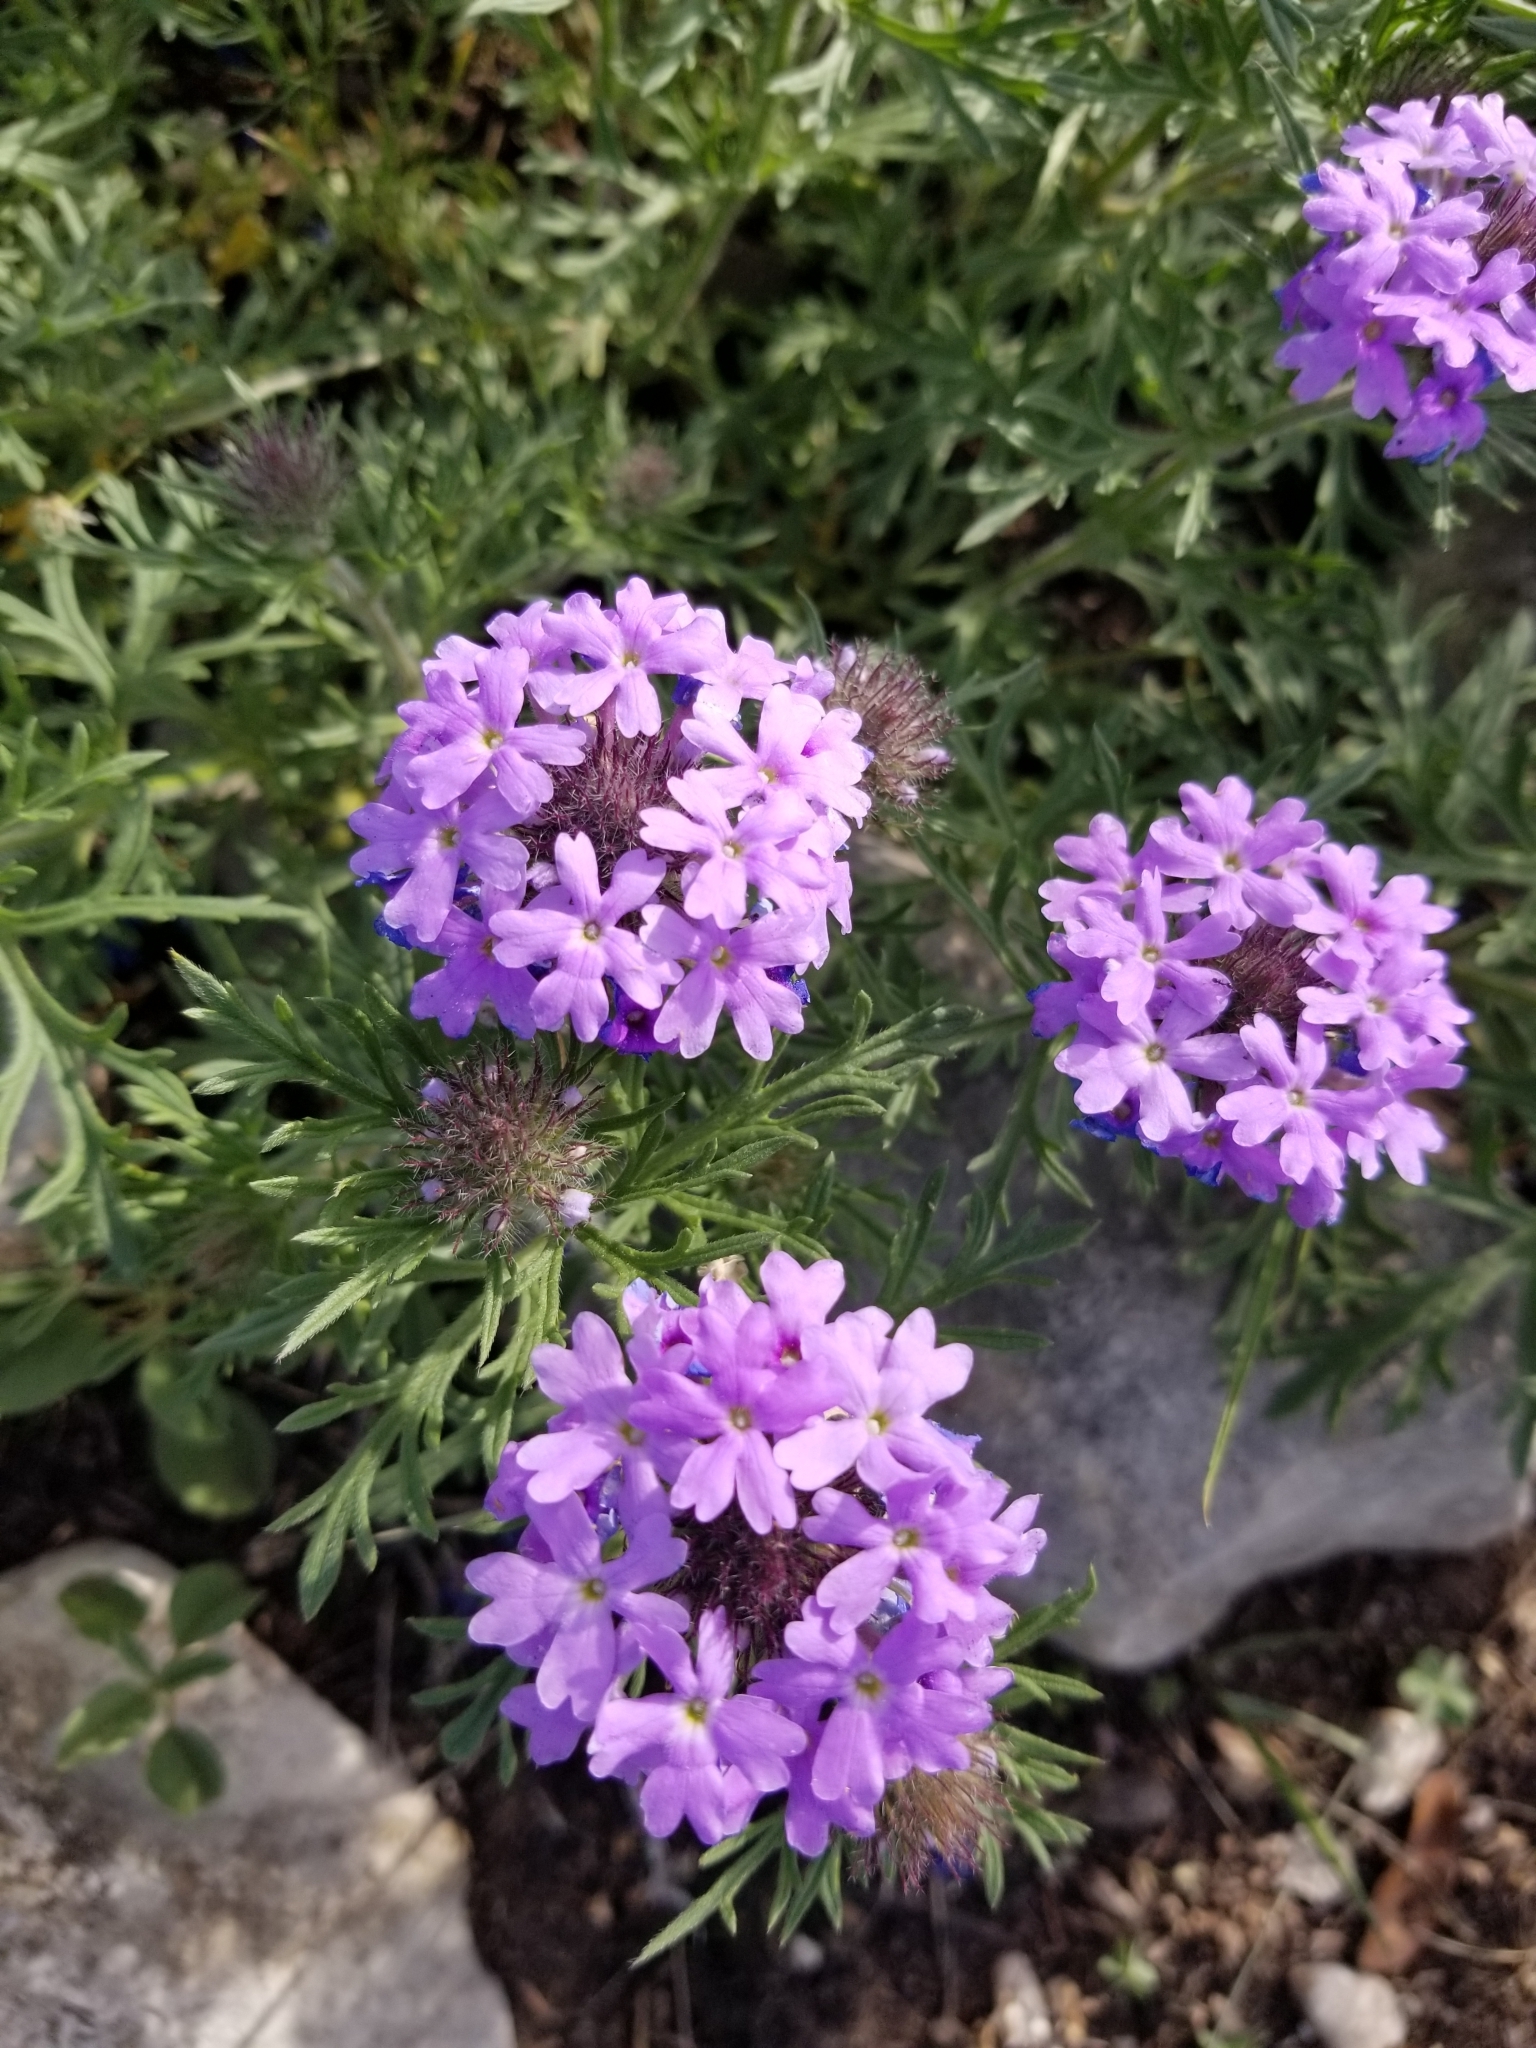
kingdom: Plantae
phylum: Tracheophyta
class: Magnoliopsida
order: Lamiales
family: Verbenaceae
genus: Verbena
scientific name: Verbena bipinnatifida
